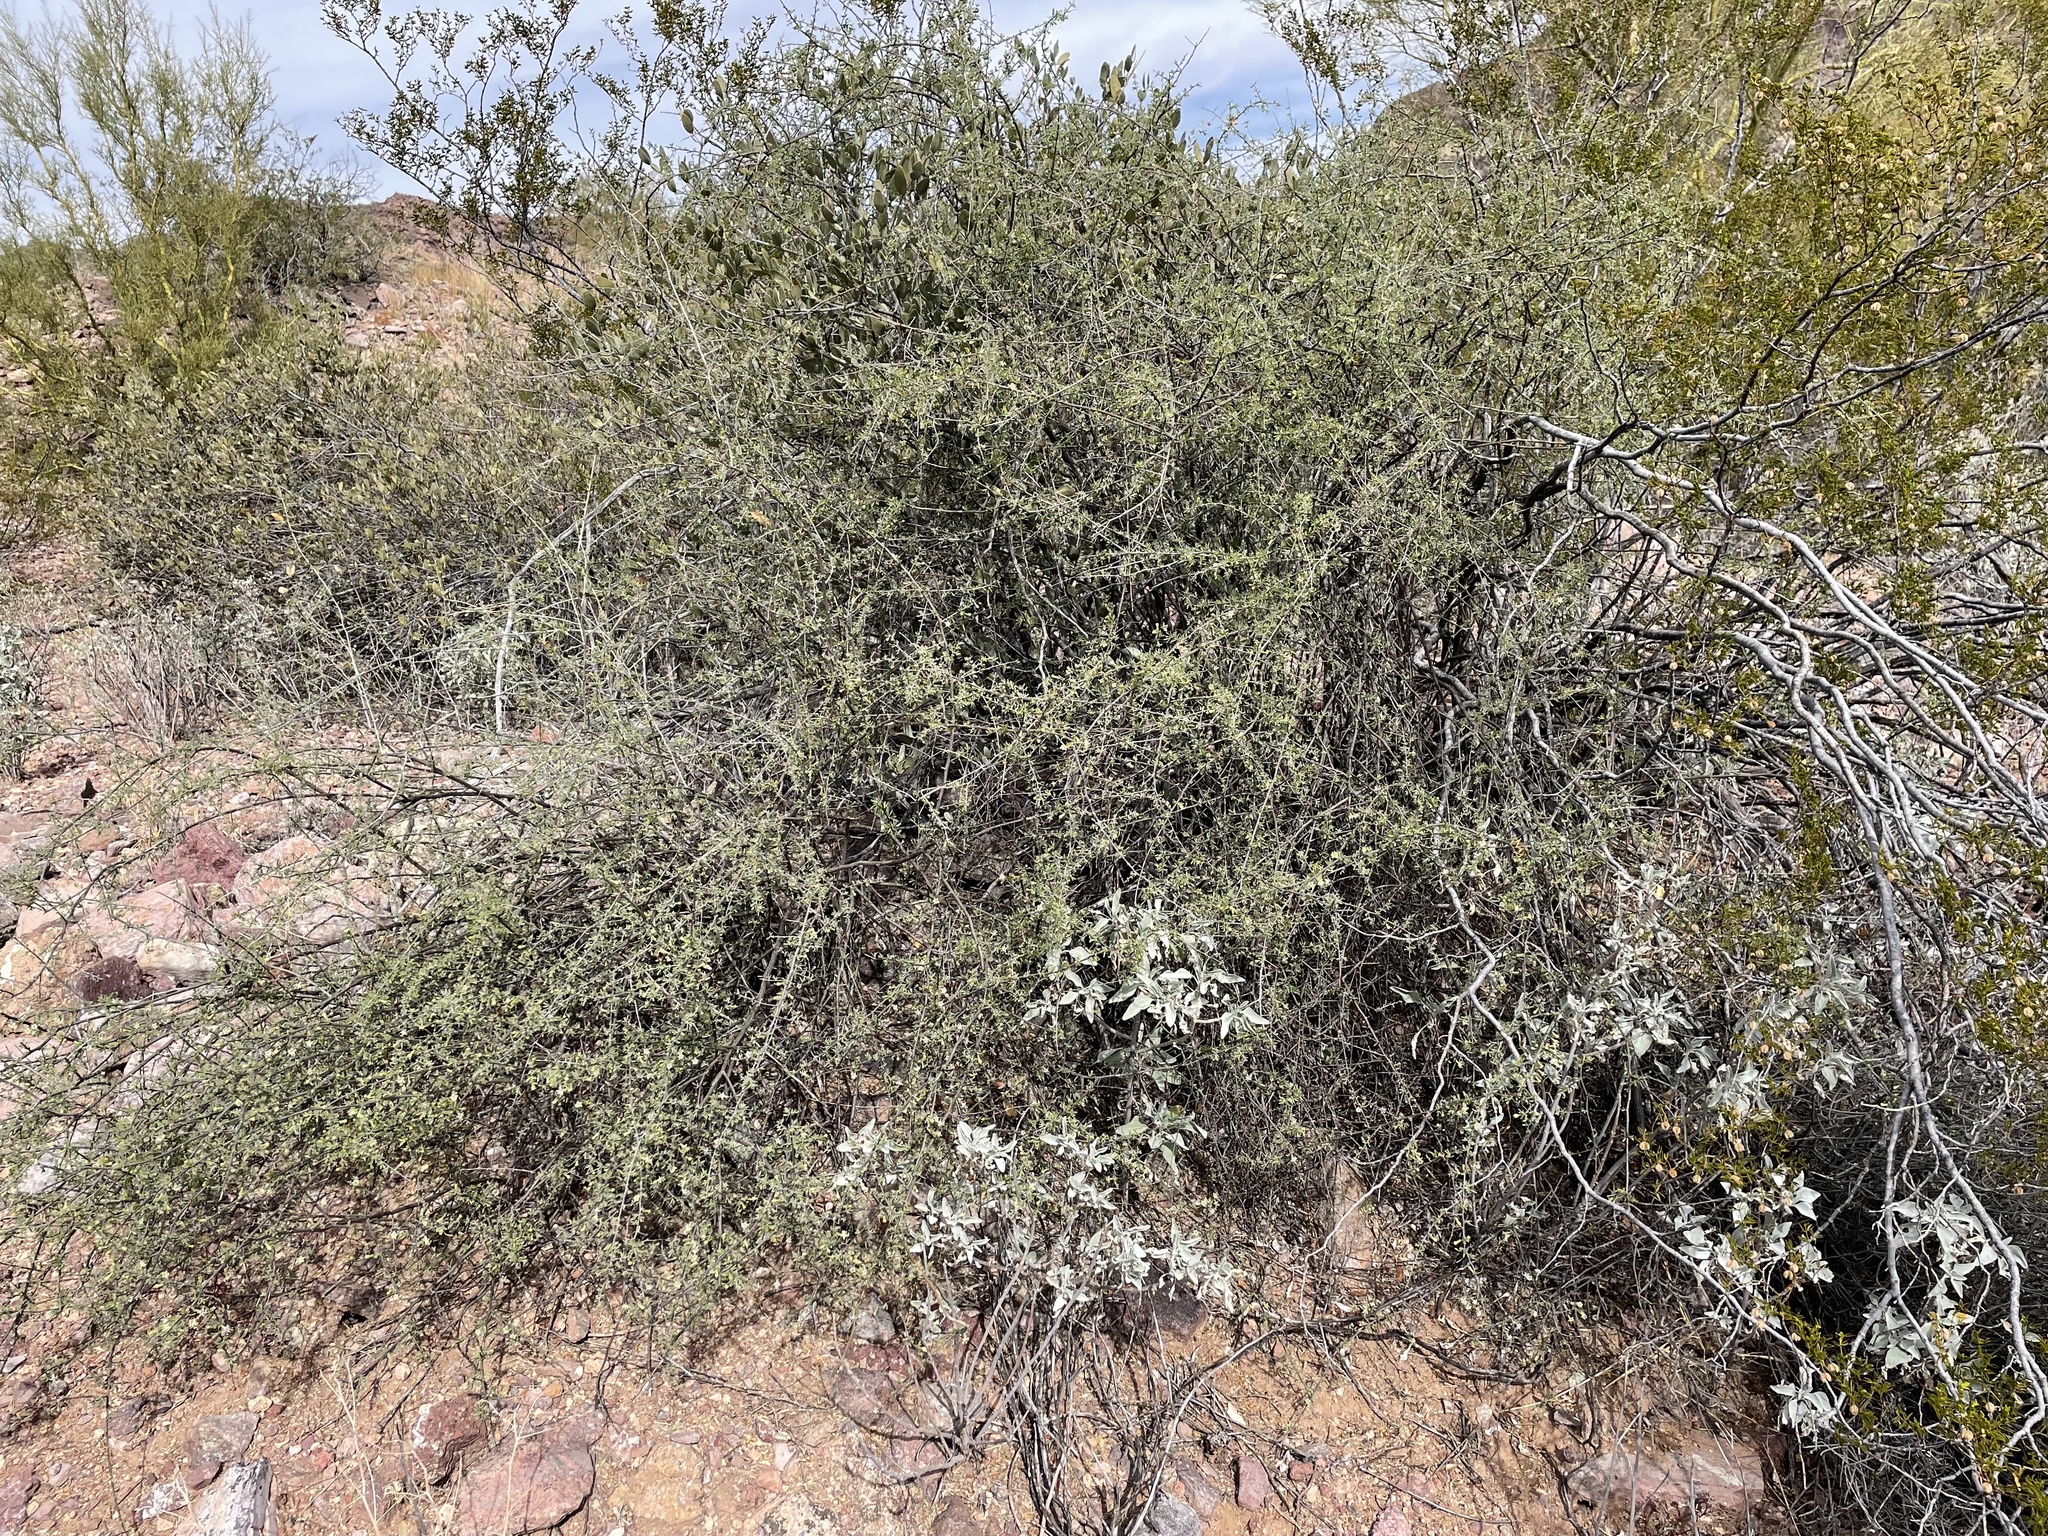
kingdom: Plantae
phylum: Tracheophyta
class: Magnoliopsida
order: Solanales
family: Solanaceae
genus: Lycium
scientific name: Lycium andersonii
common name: Water-jacket
